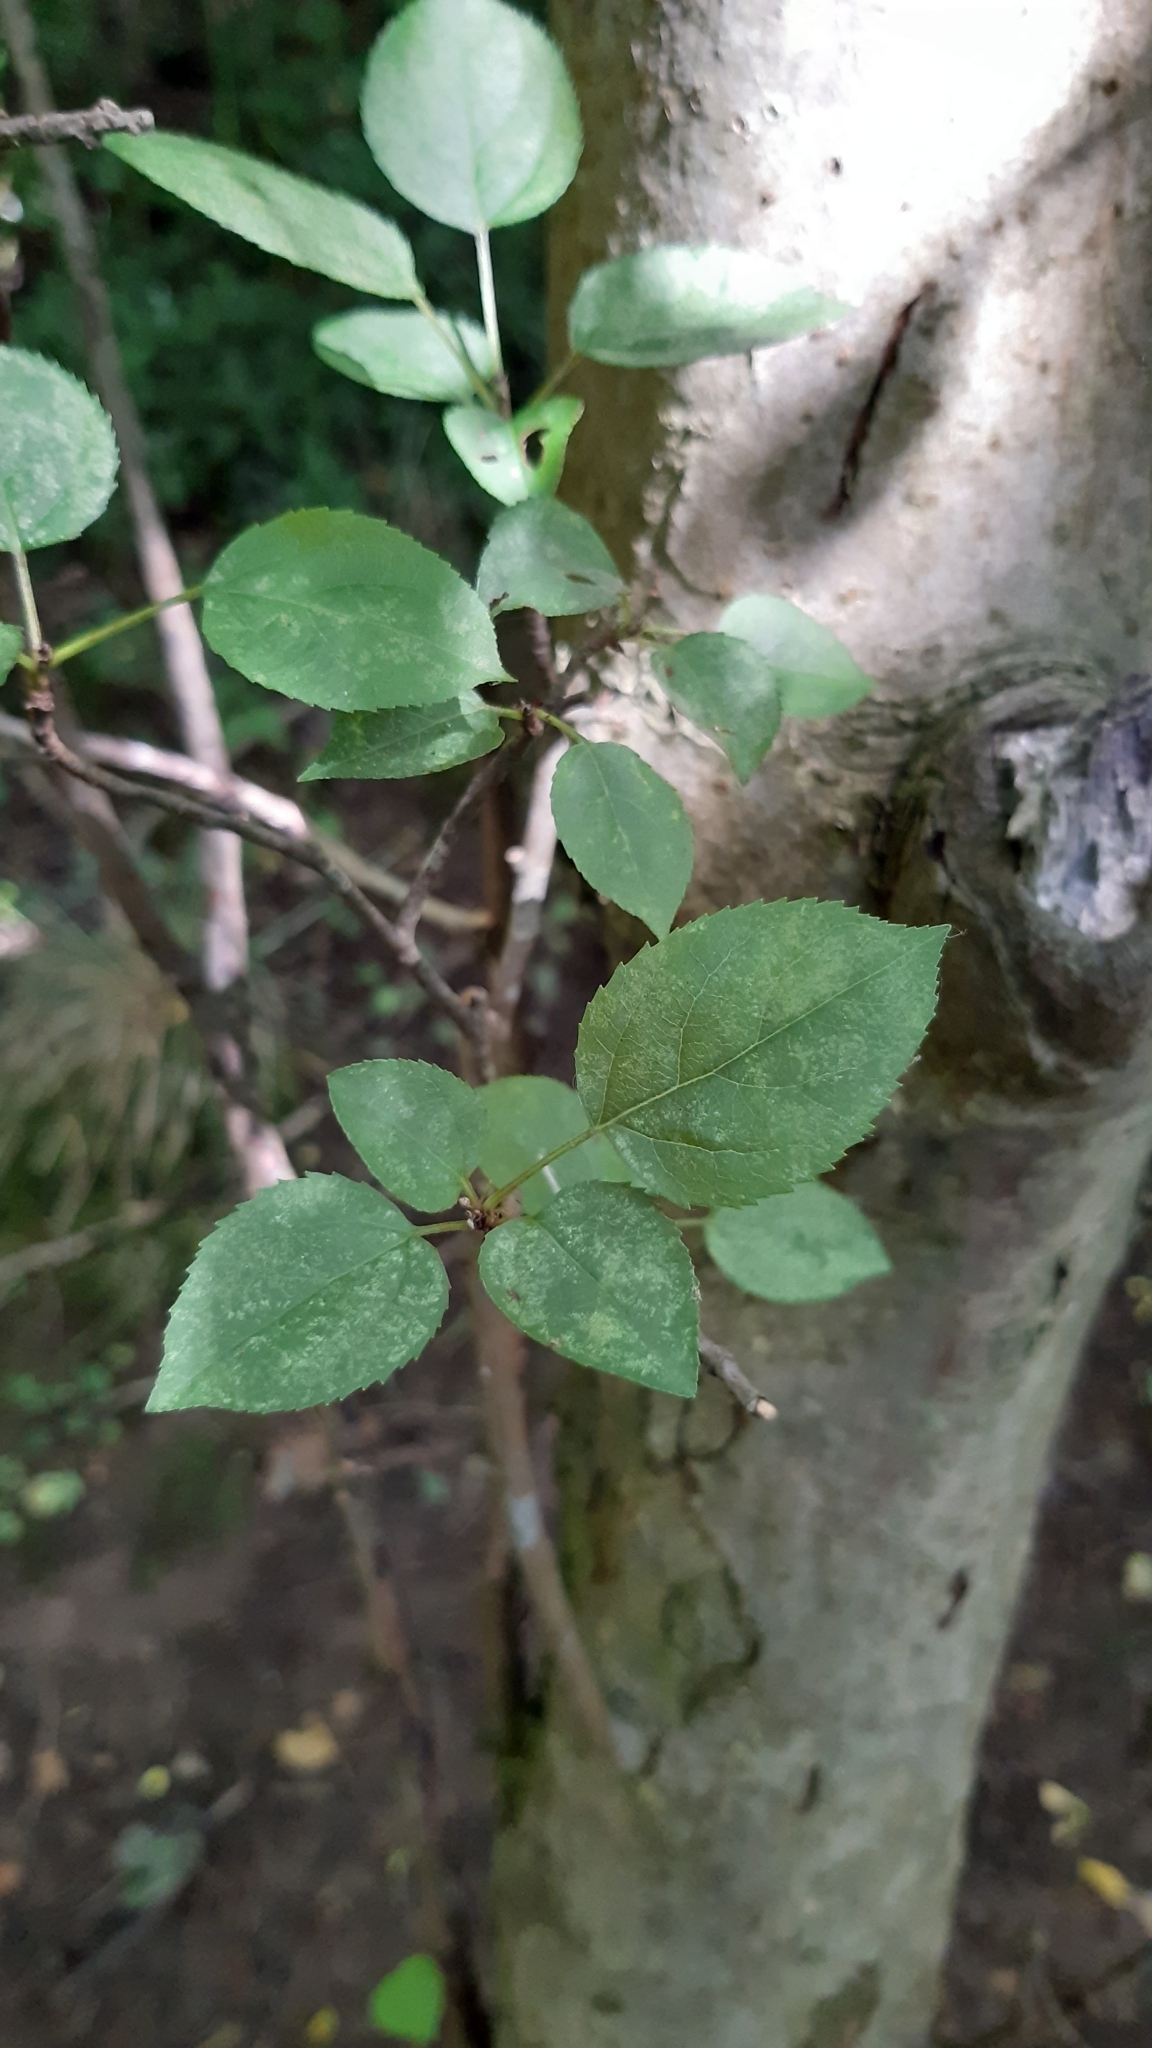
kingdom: Plantae
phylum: Tracheophyta
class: Magnoliopsida
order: Rosales
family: Rosaceae
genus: Prunus
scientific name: Prunus cerasifera
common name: Cherry plum
